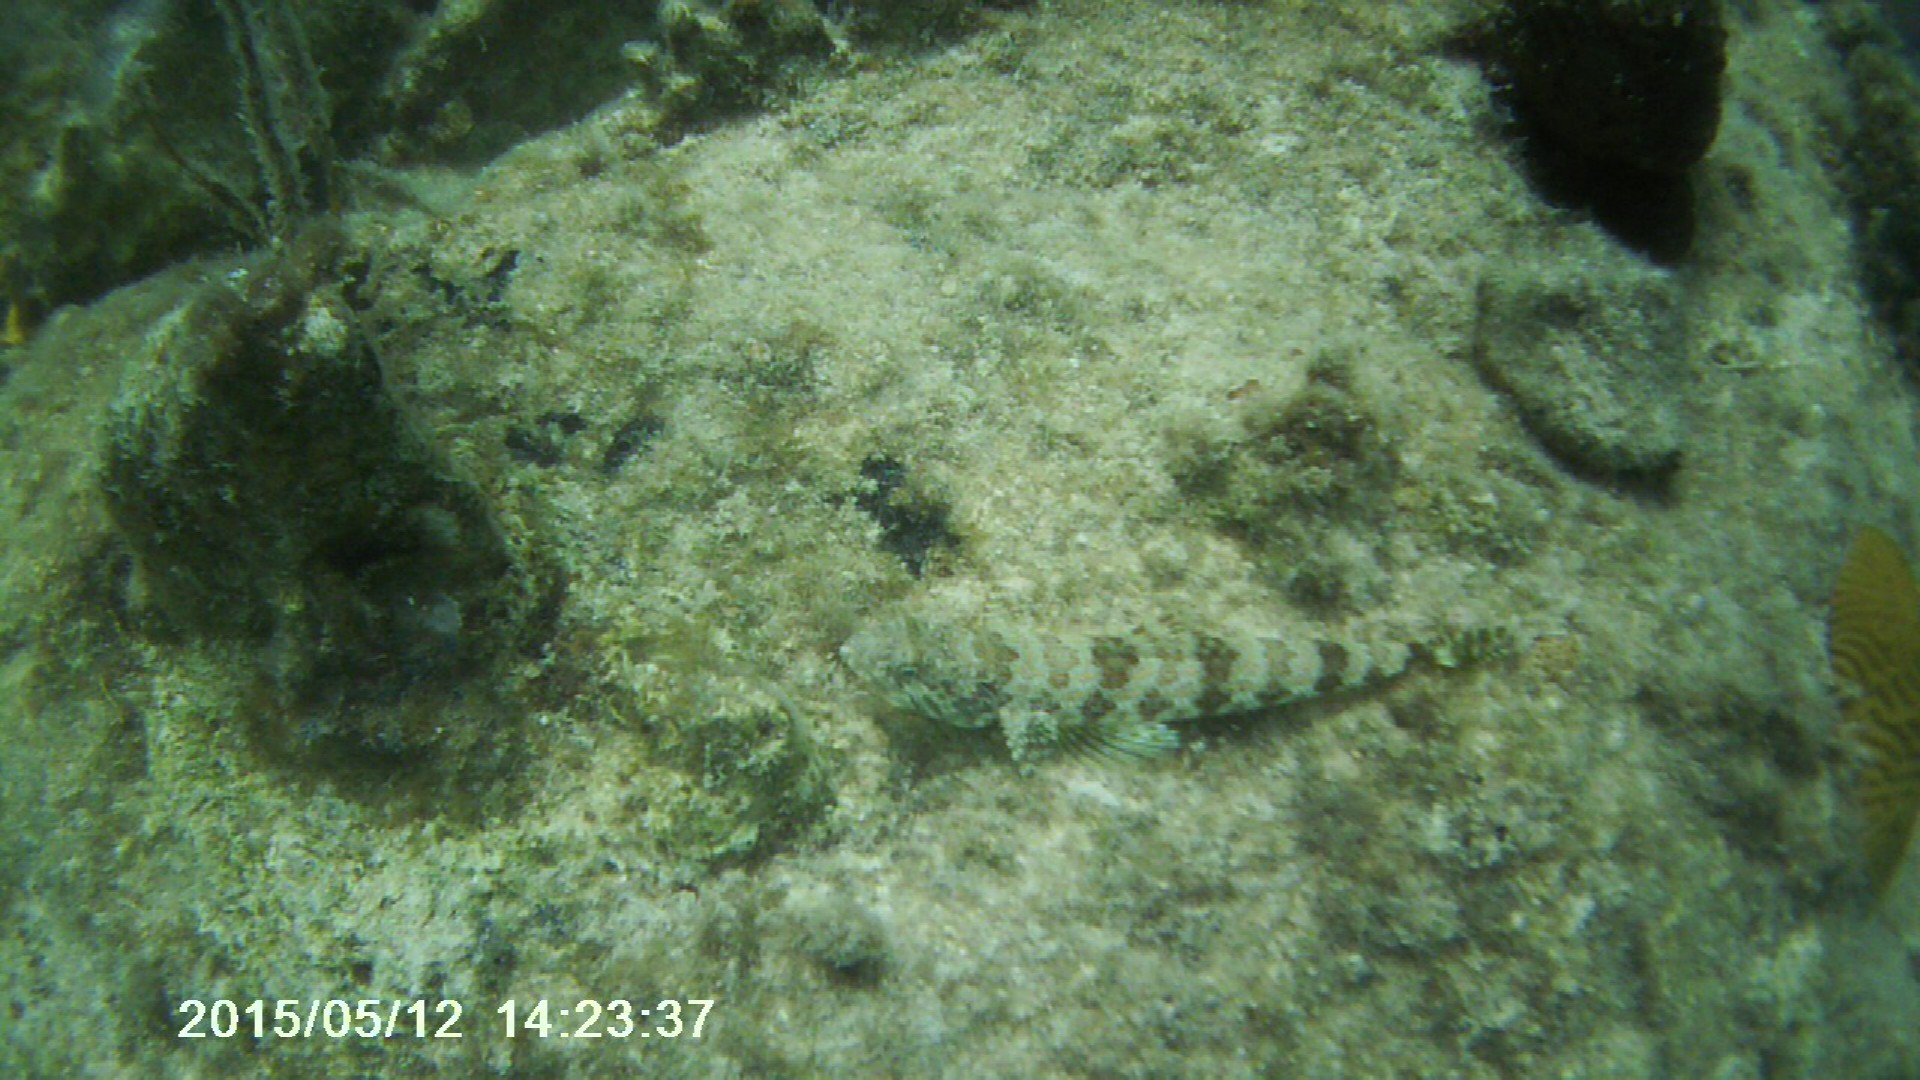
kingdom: Animalia
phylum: Chordata
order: Aulopiformes
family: Synodontidae
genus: Synodus
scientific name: Synodus intermedius
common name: Sand diver
